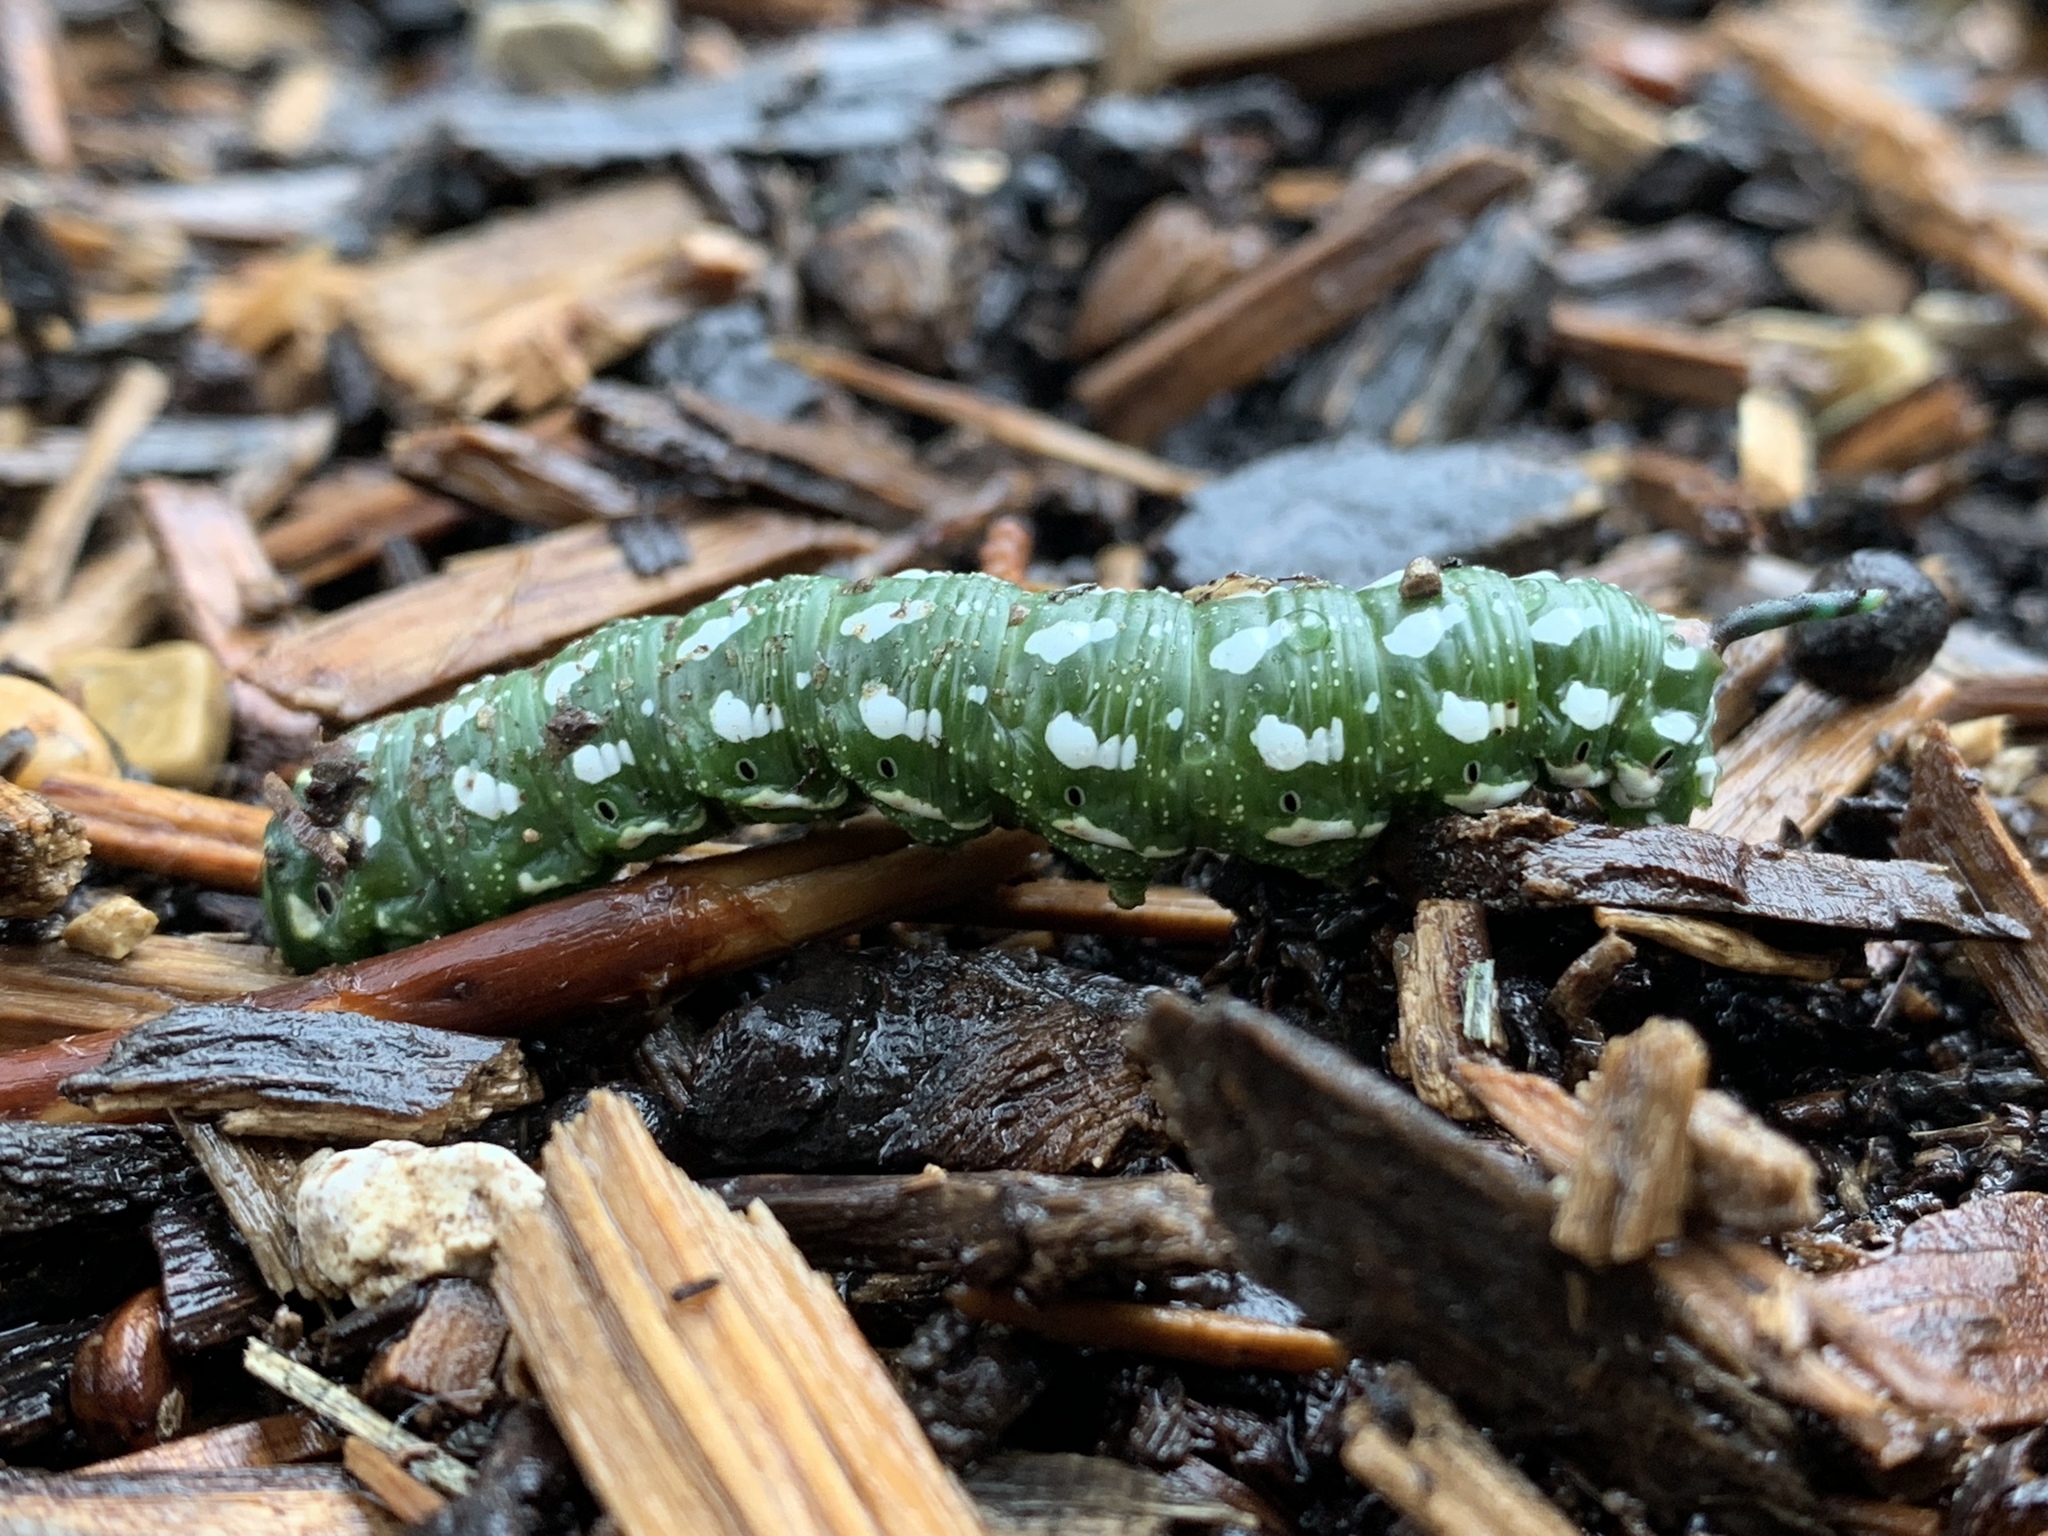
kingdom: Animalia
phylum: Arthropoda
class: Insecta
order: Lepidoptera
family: Sphingidae
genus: Sphinx
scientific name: Sphinx vanbuskirki
